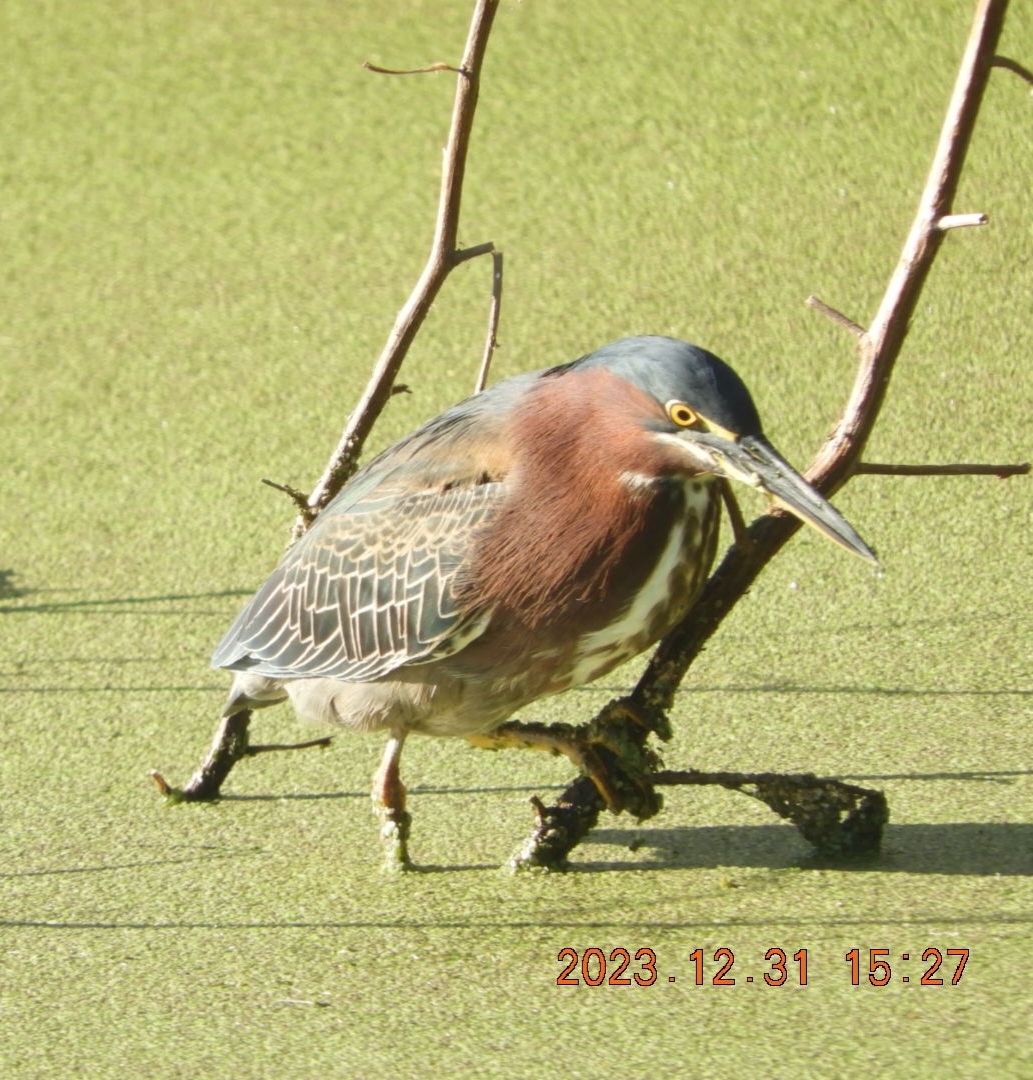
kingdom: Animalia
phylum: Chordata
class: Aves
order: Pelecaniformes
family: Ardeidae
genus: Butorides
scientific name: Butorides virescens
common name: Green heron
